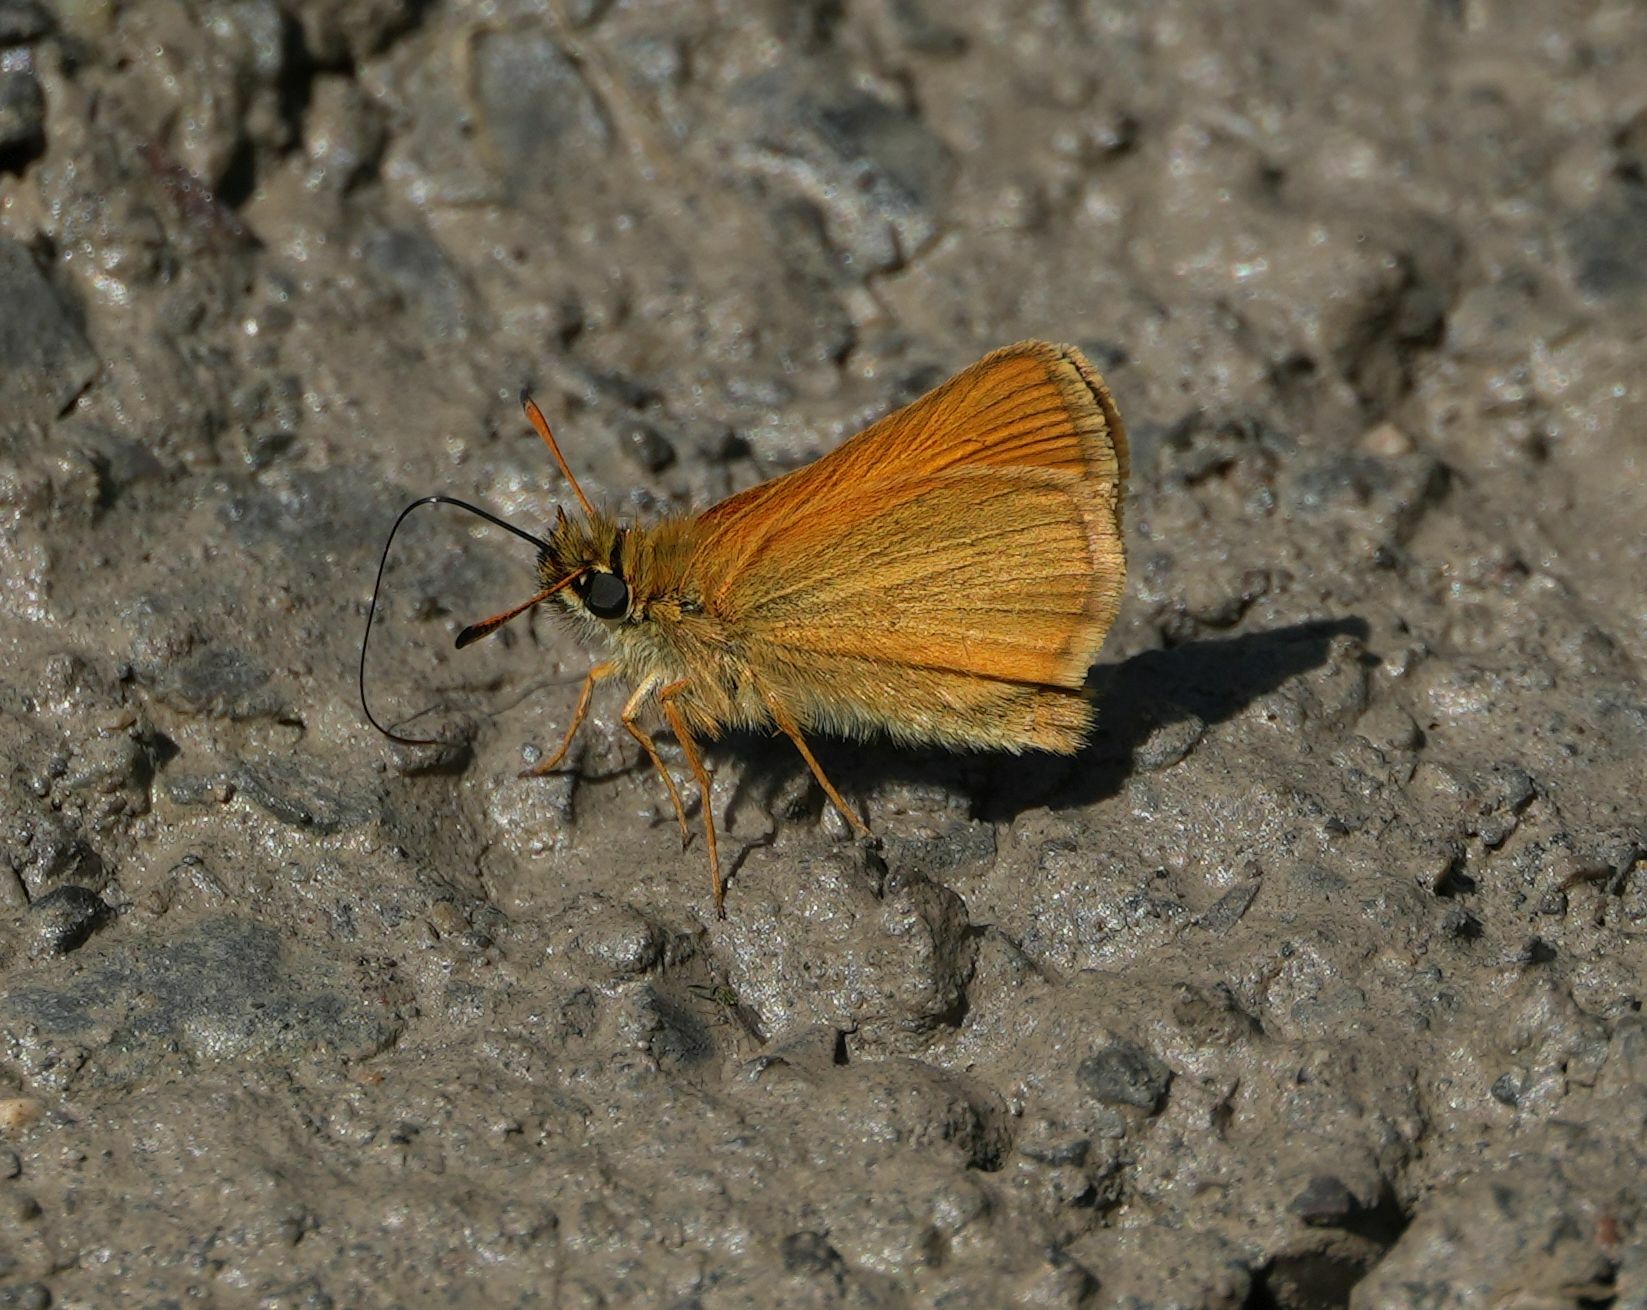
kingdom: Animalia
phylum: Arthropoda
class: Insecta
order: Lepidoptera
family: Hesperiidae
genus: Thymelicus
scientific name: Thymelicus lineola
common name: Essex skipper
